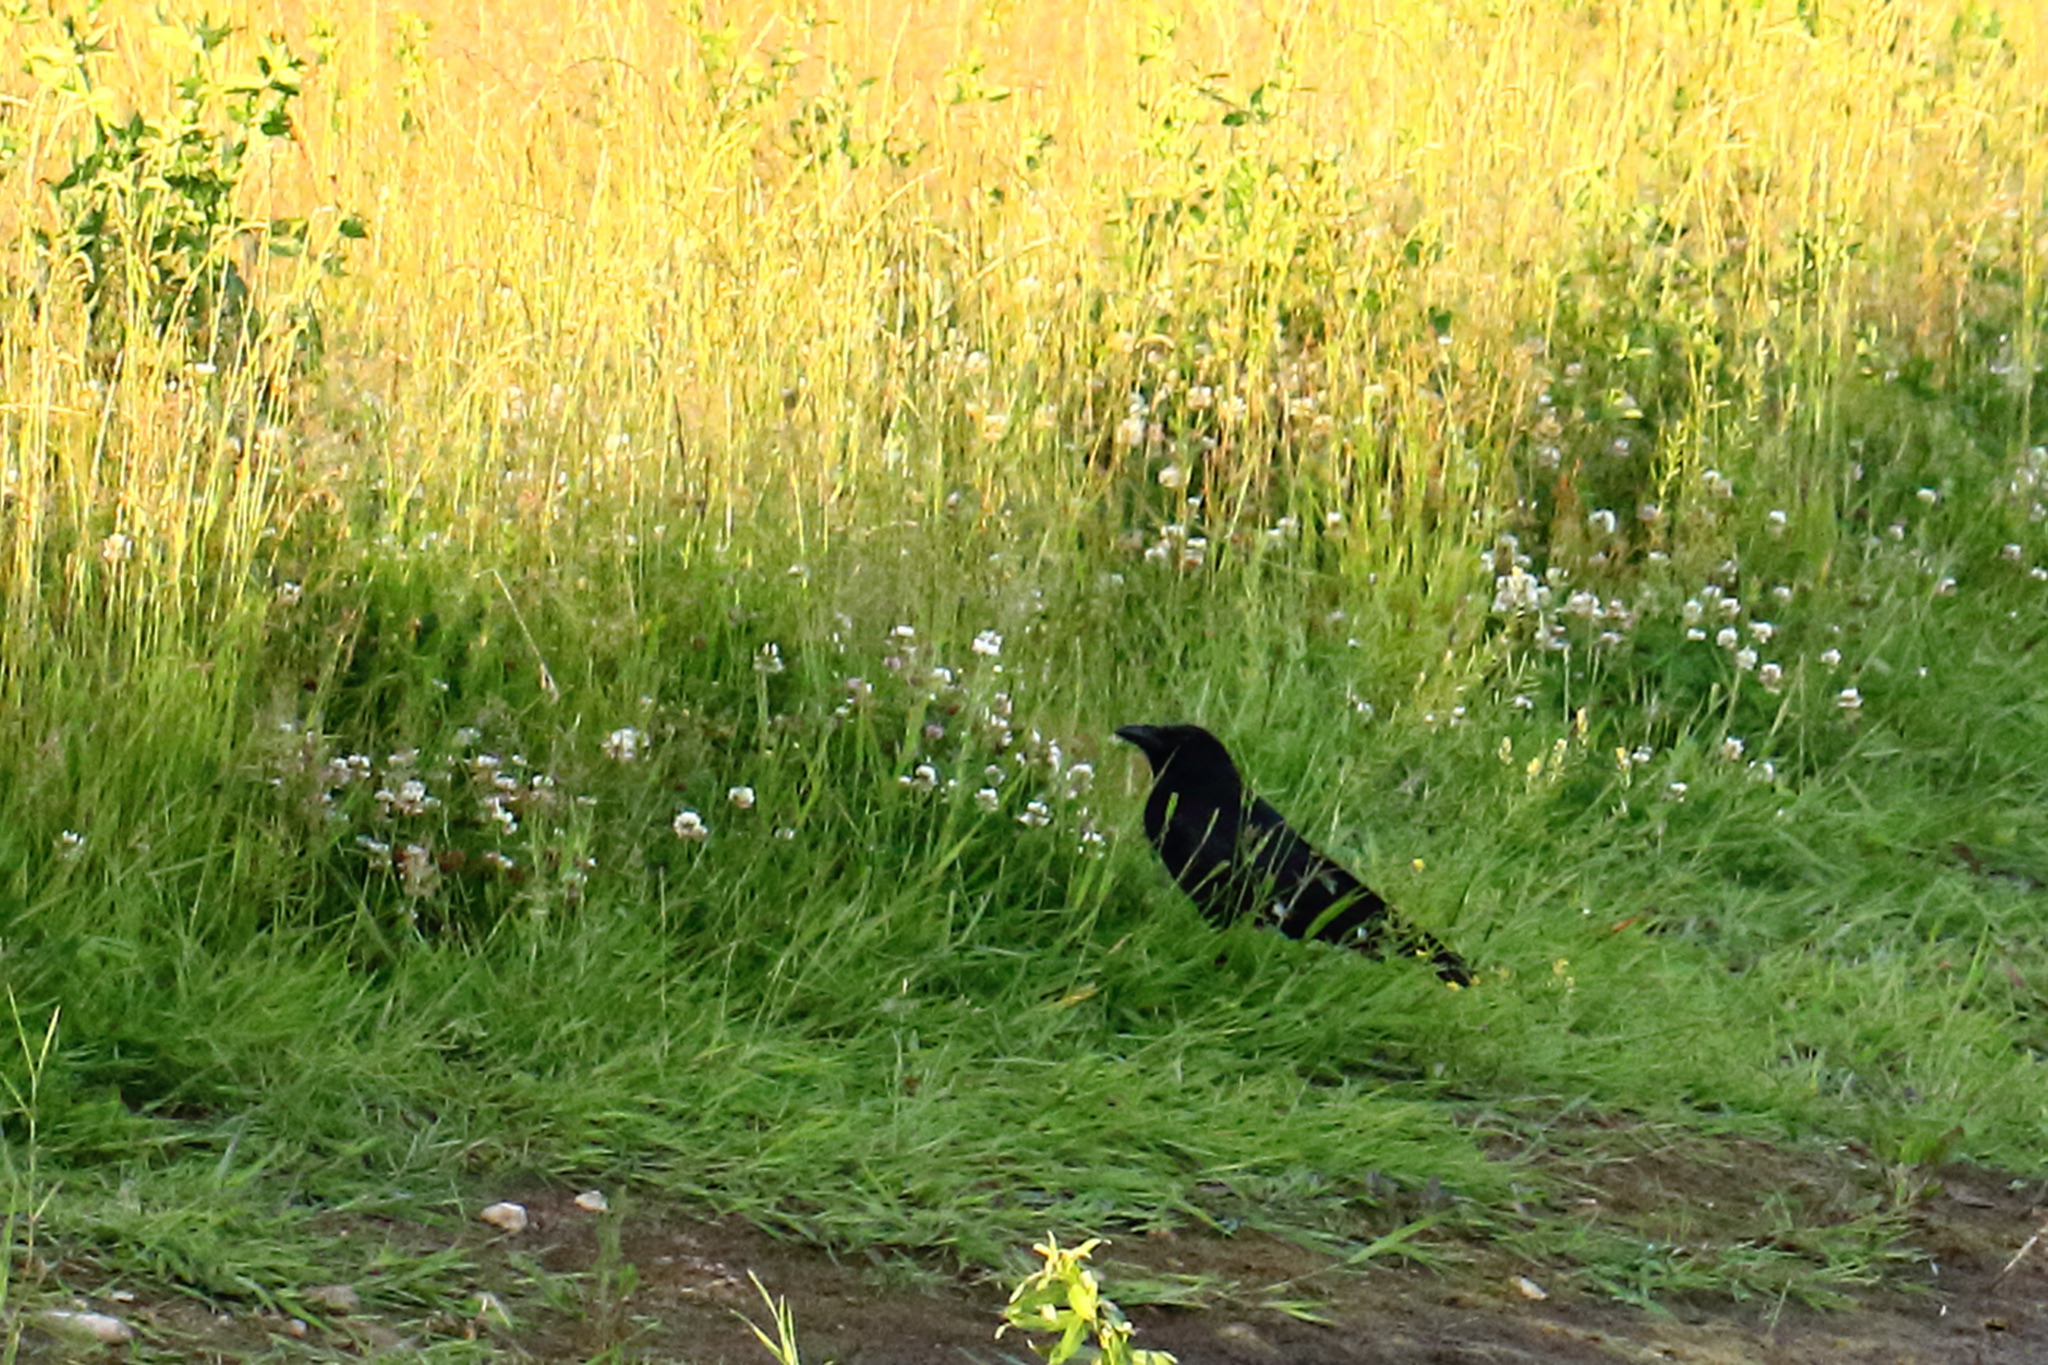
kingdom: Animalia
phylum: Chordata
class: Aves
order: Passeriformes
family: Corvidae
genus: Corvus
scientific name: Corvus corone
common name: Carrion crow
